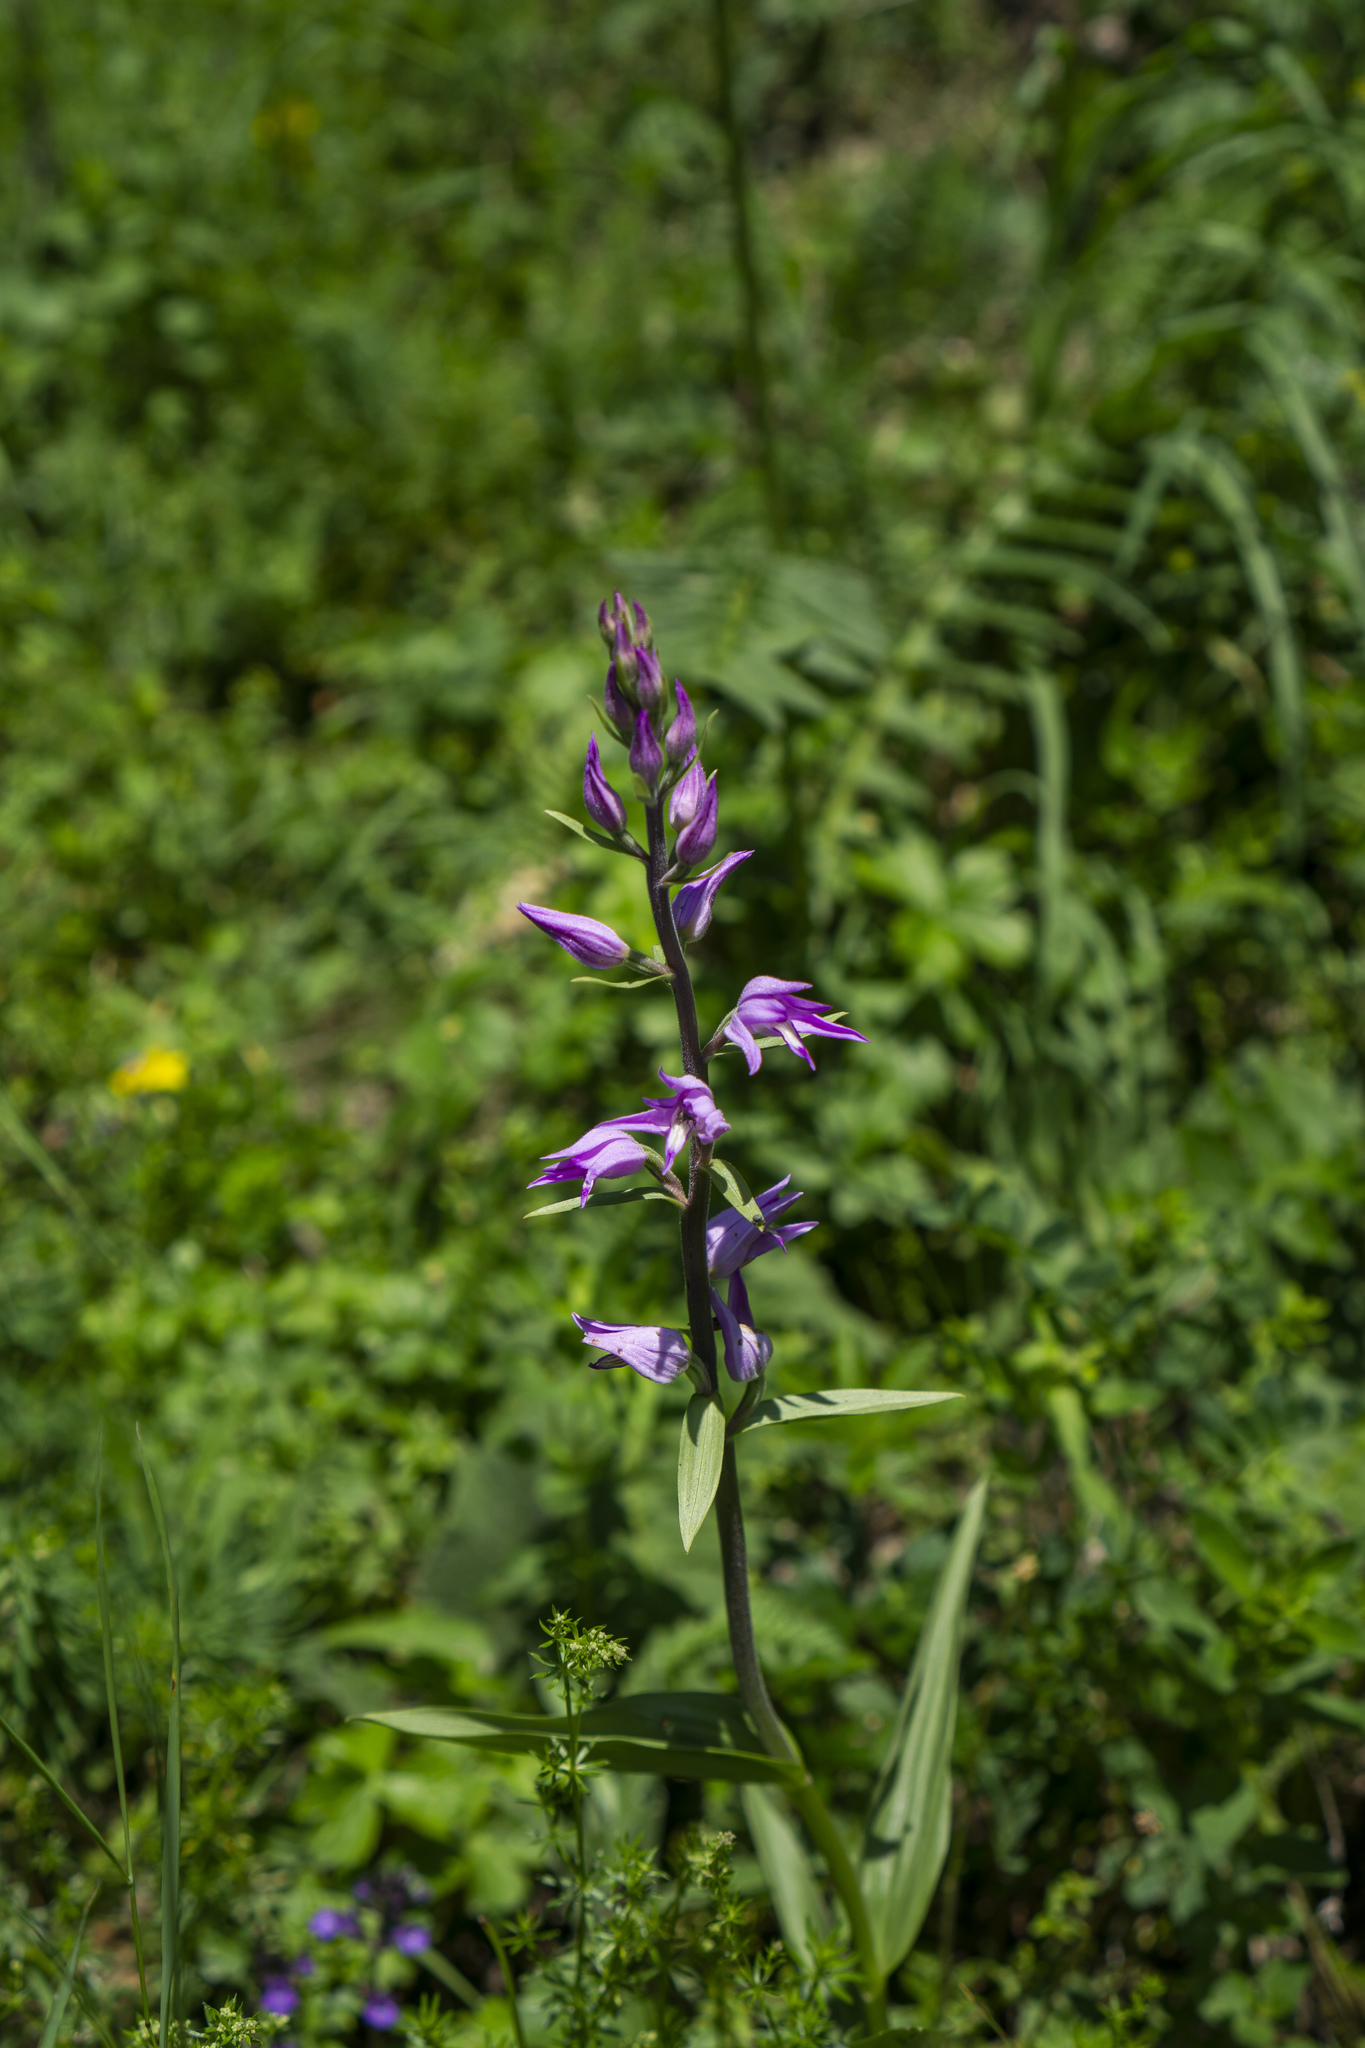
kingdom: Plantae
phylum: Tracheophyta
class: Liliopsida
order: Asparagales
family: Orchidaceae
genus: Cephalanthera
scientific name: Cephalanthera rubra
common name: Red helleborine
